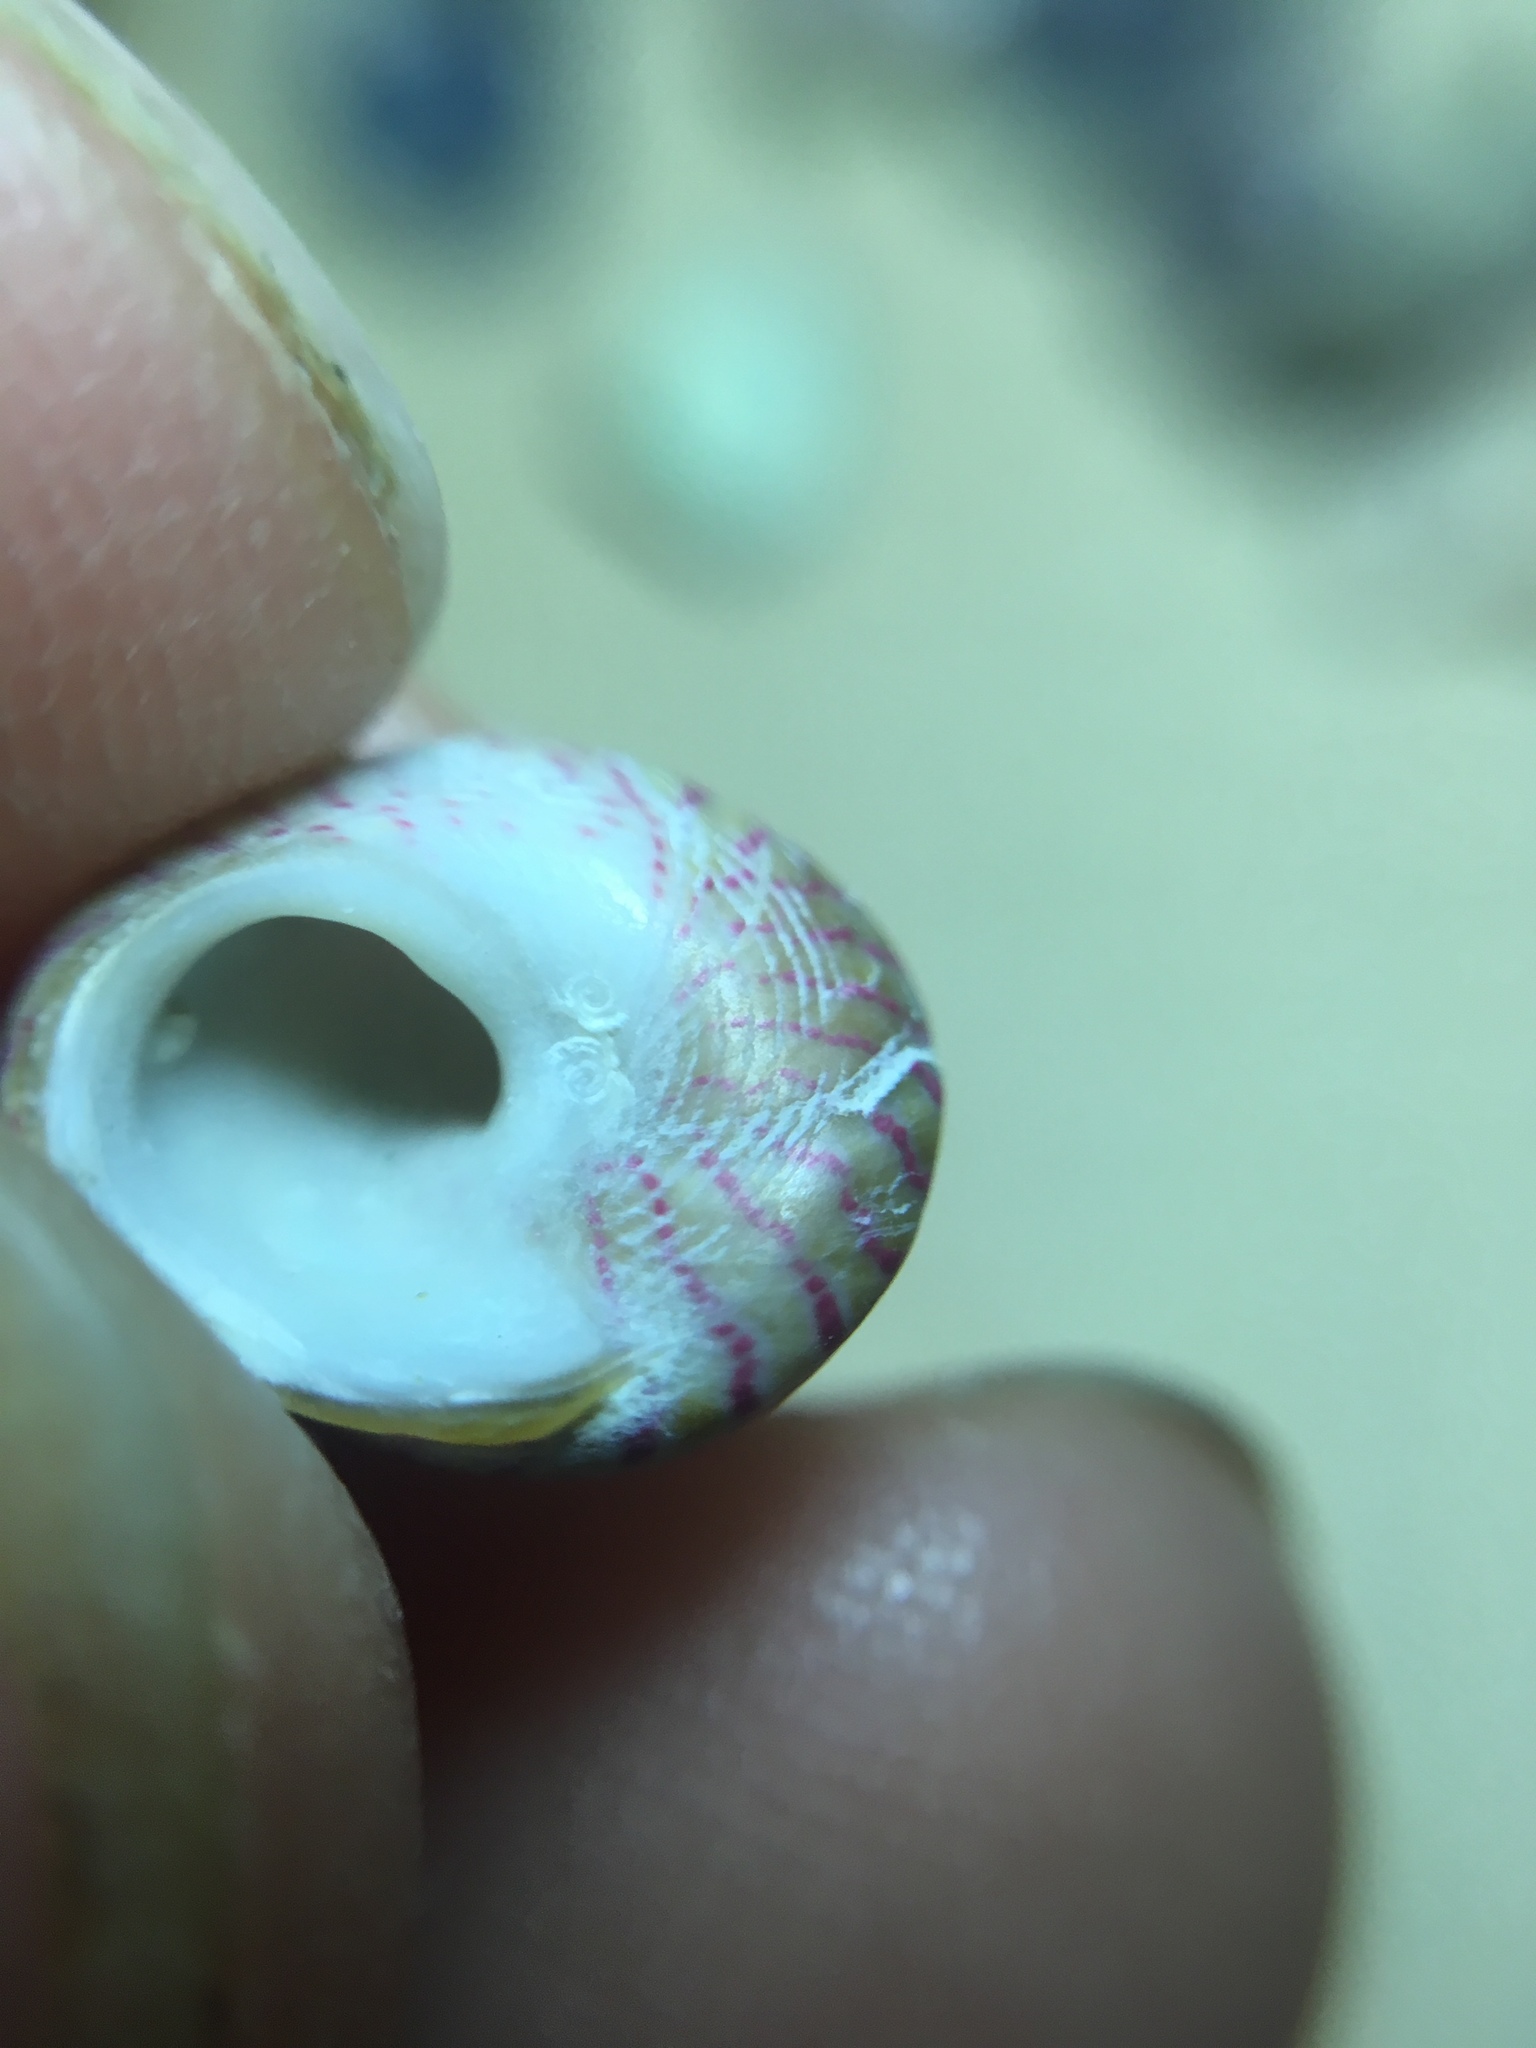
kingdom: Animalia
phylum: Mollusca
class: Gastropoda
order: Trochida
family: Trochidae
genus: Steromphala
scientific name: Steromphala divaricata
